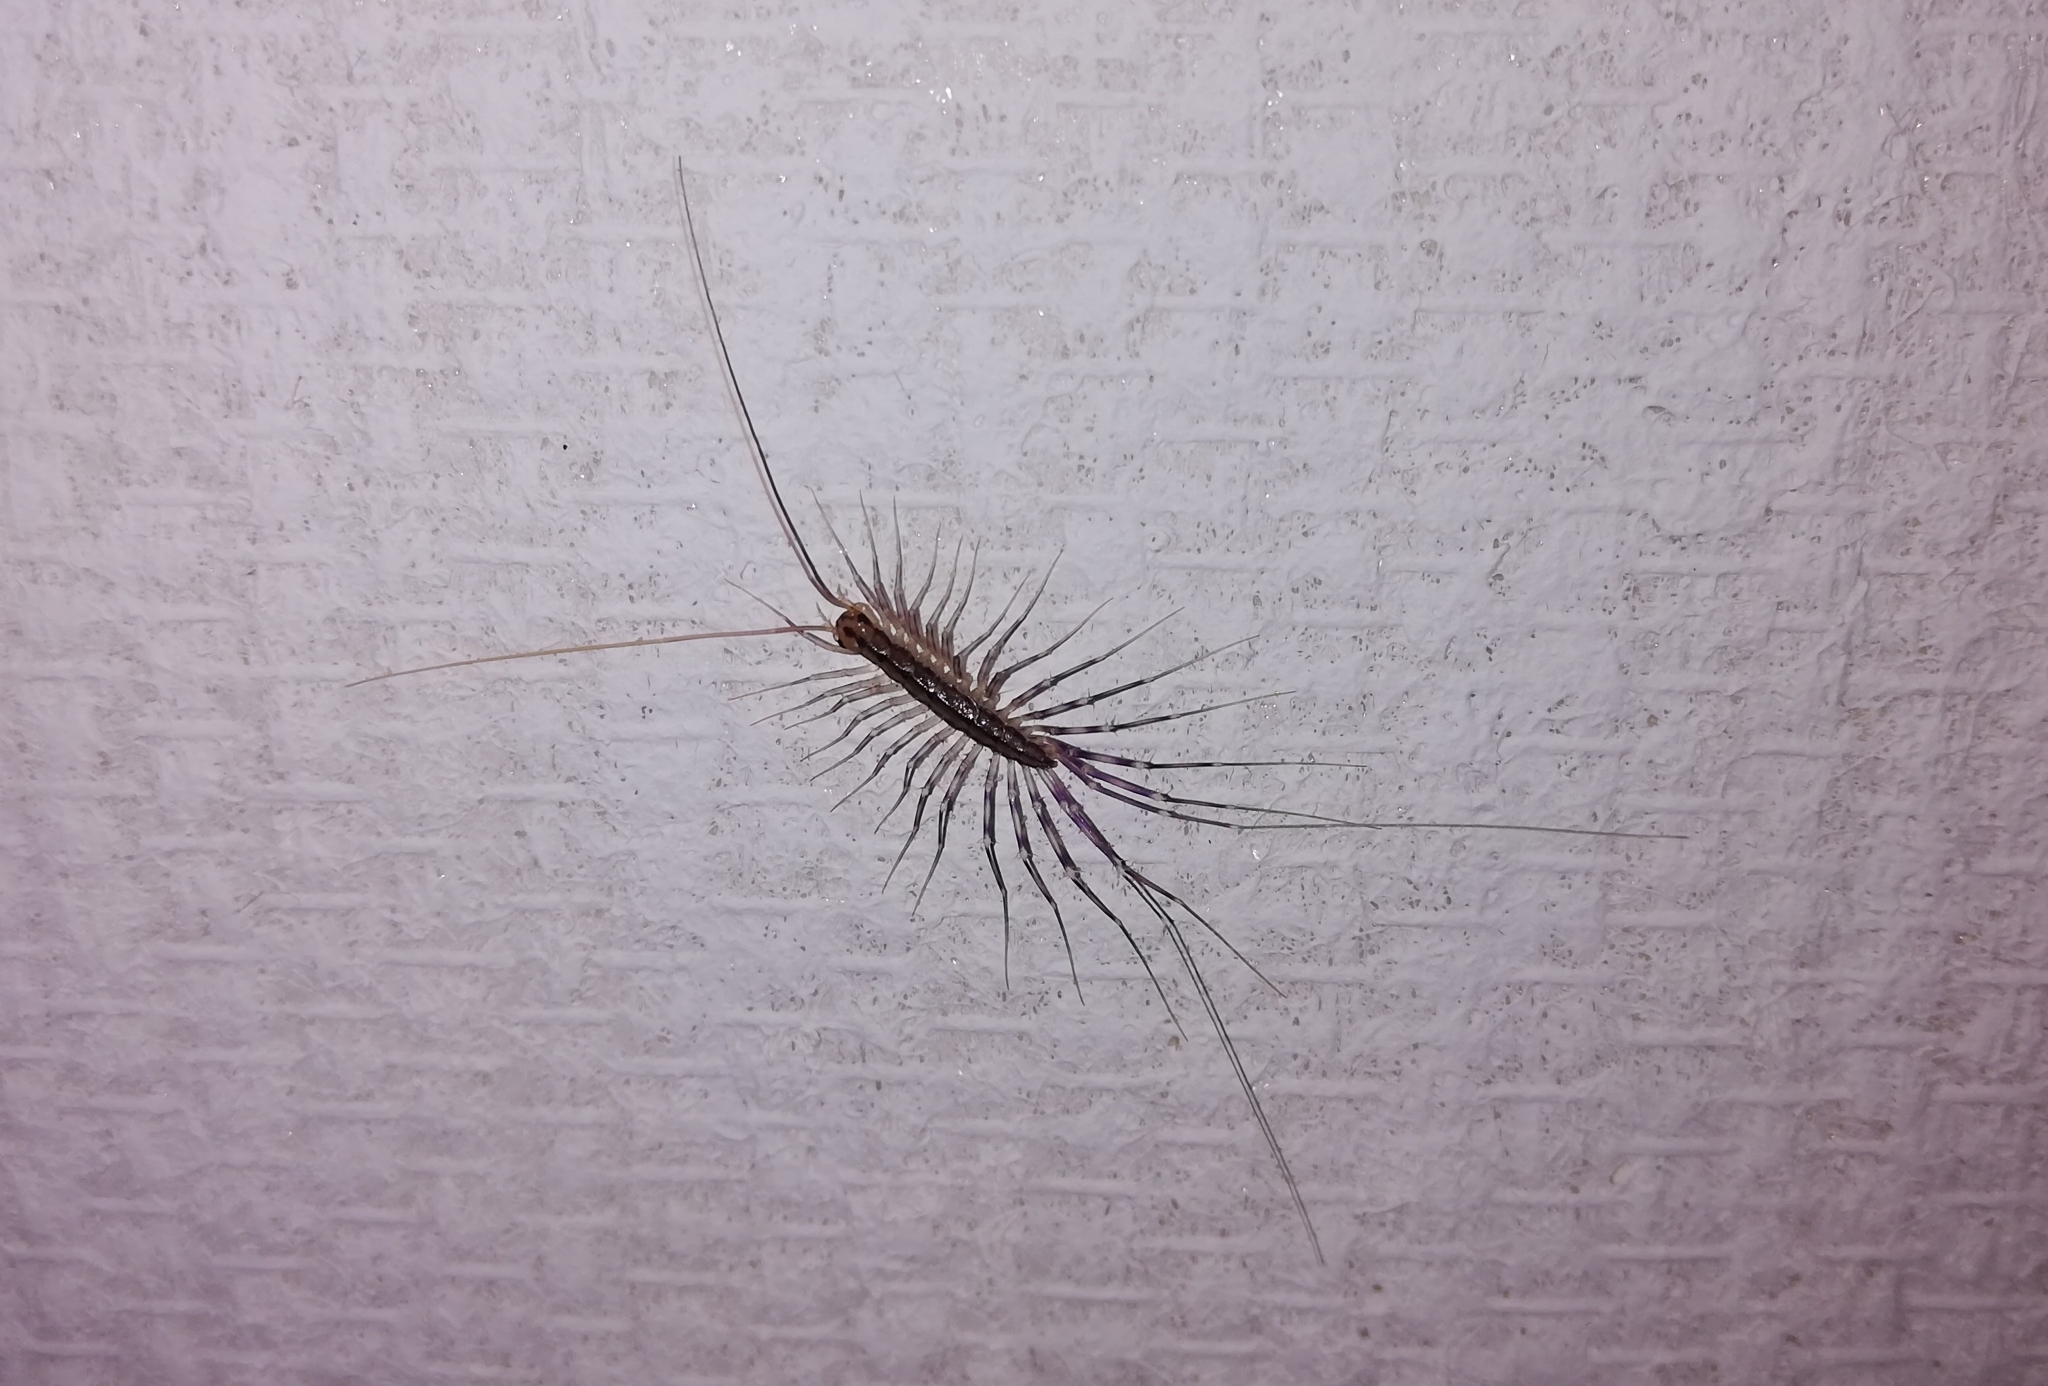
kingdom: Animalia
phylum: Arthropoda
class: Chilopoda
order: Scutigeromorpha
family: Scutigeridae
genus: Scutigera
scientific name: Scutigera coleoptrata
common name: House centipede
